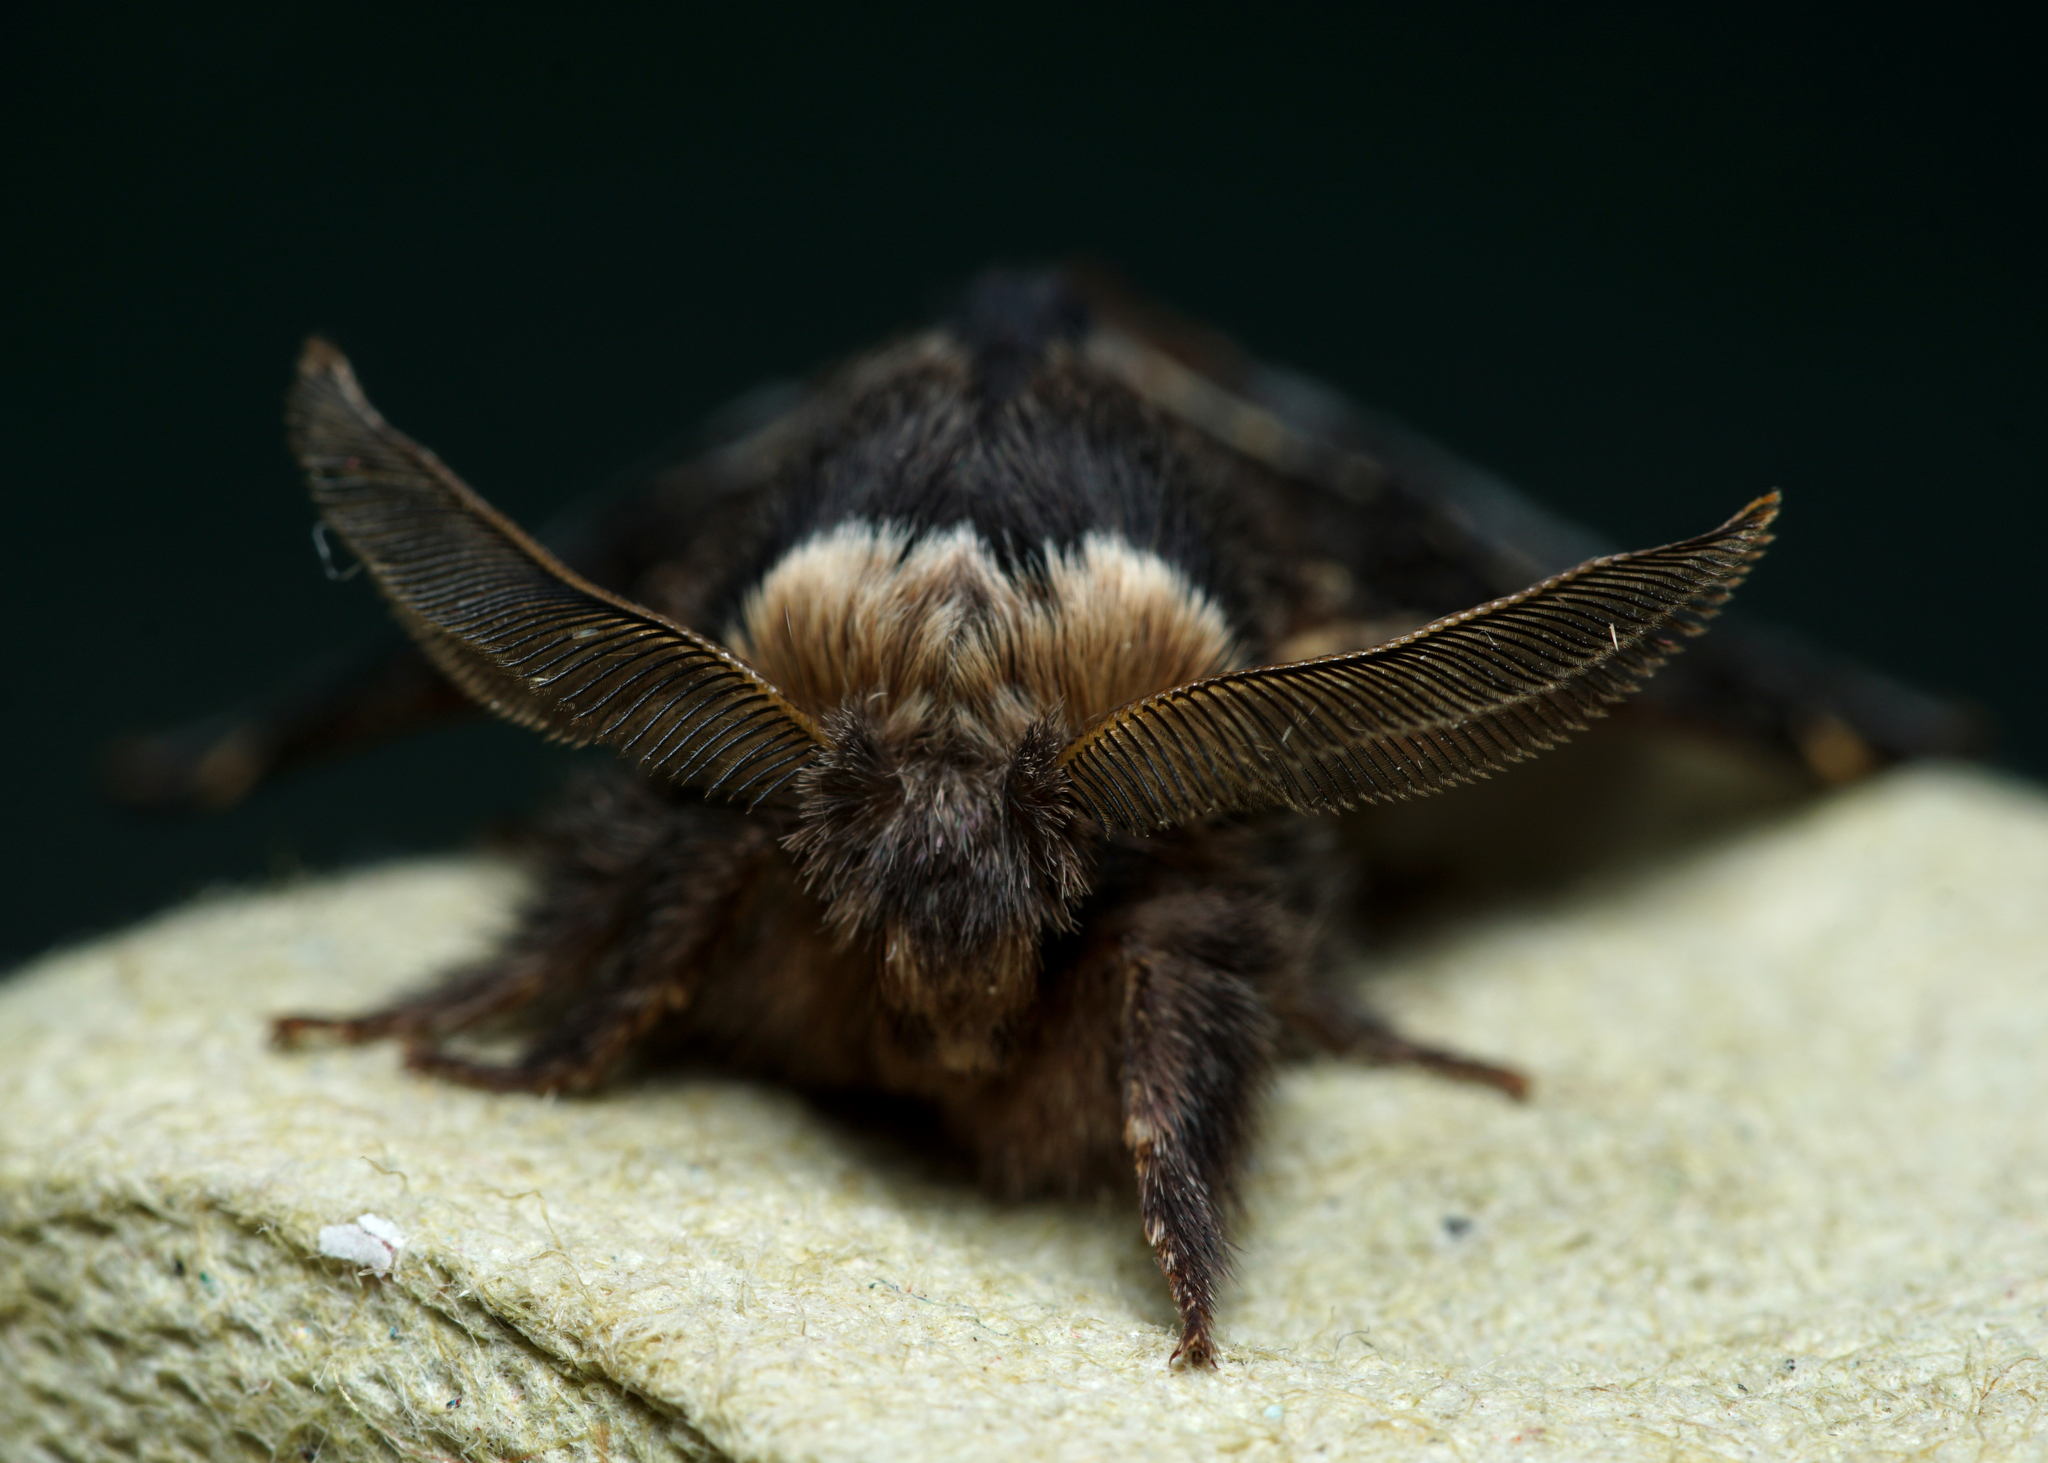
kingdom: Animalia
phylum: Arthropoda
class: Insecta
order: Lepidoptera
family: Lasiocampidae
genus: Poecilocampa
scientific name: Poecilocampa populi
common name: December moth
